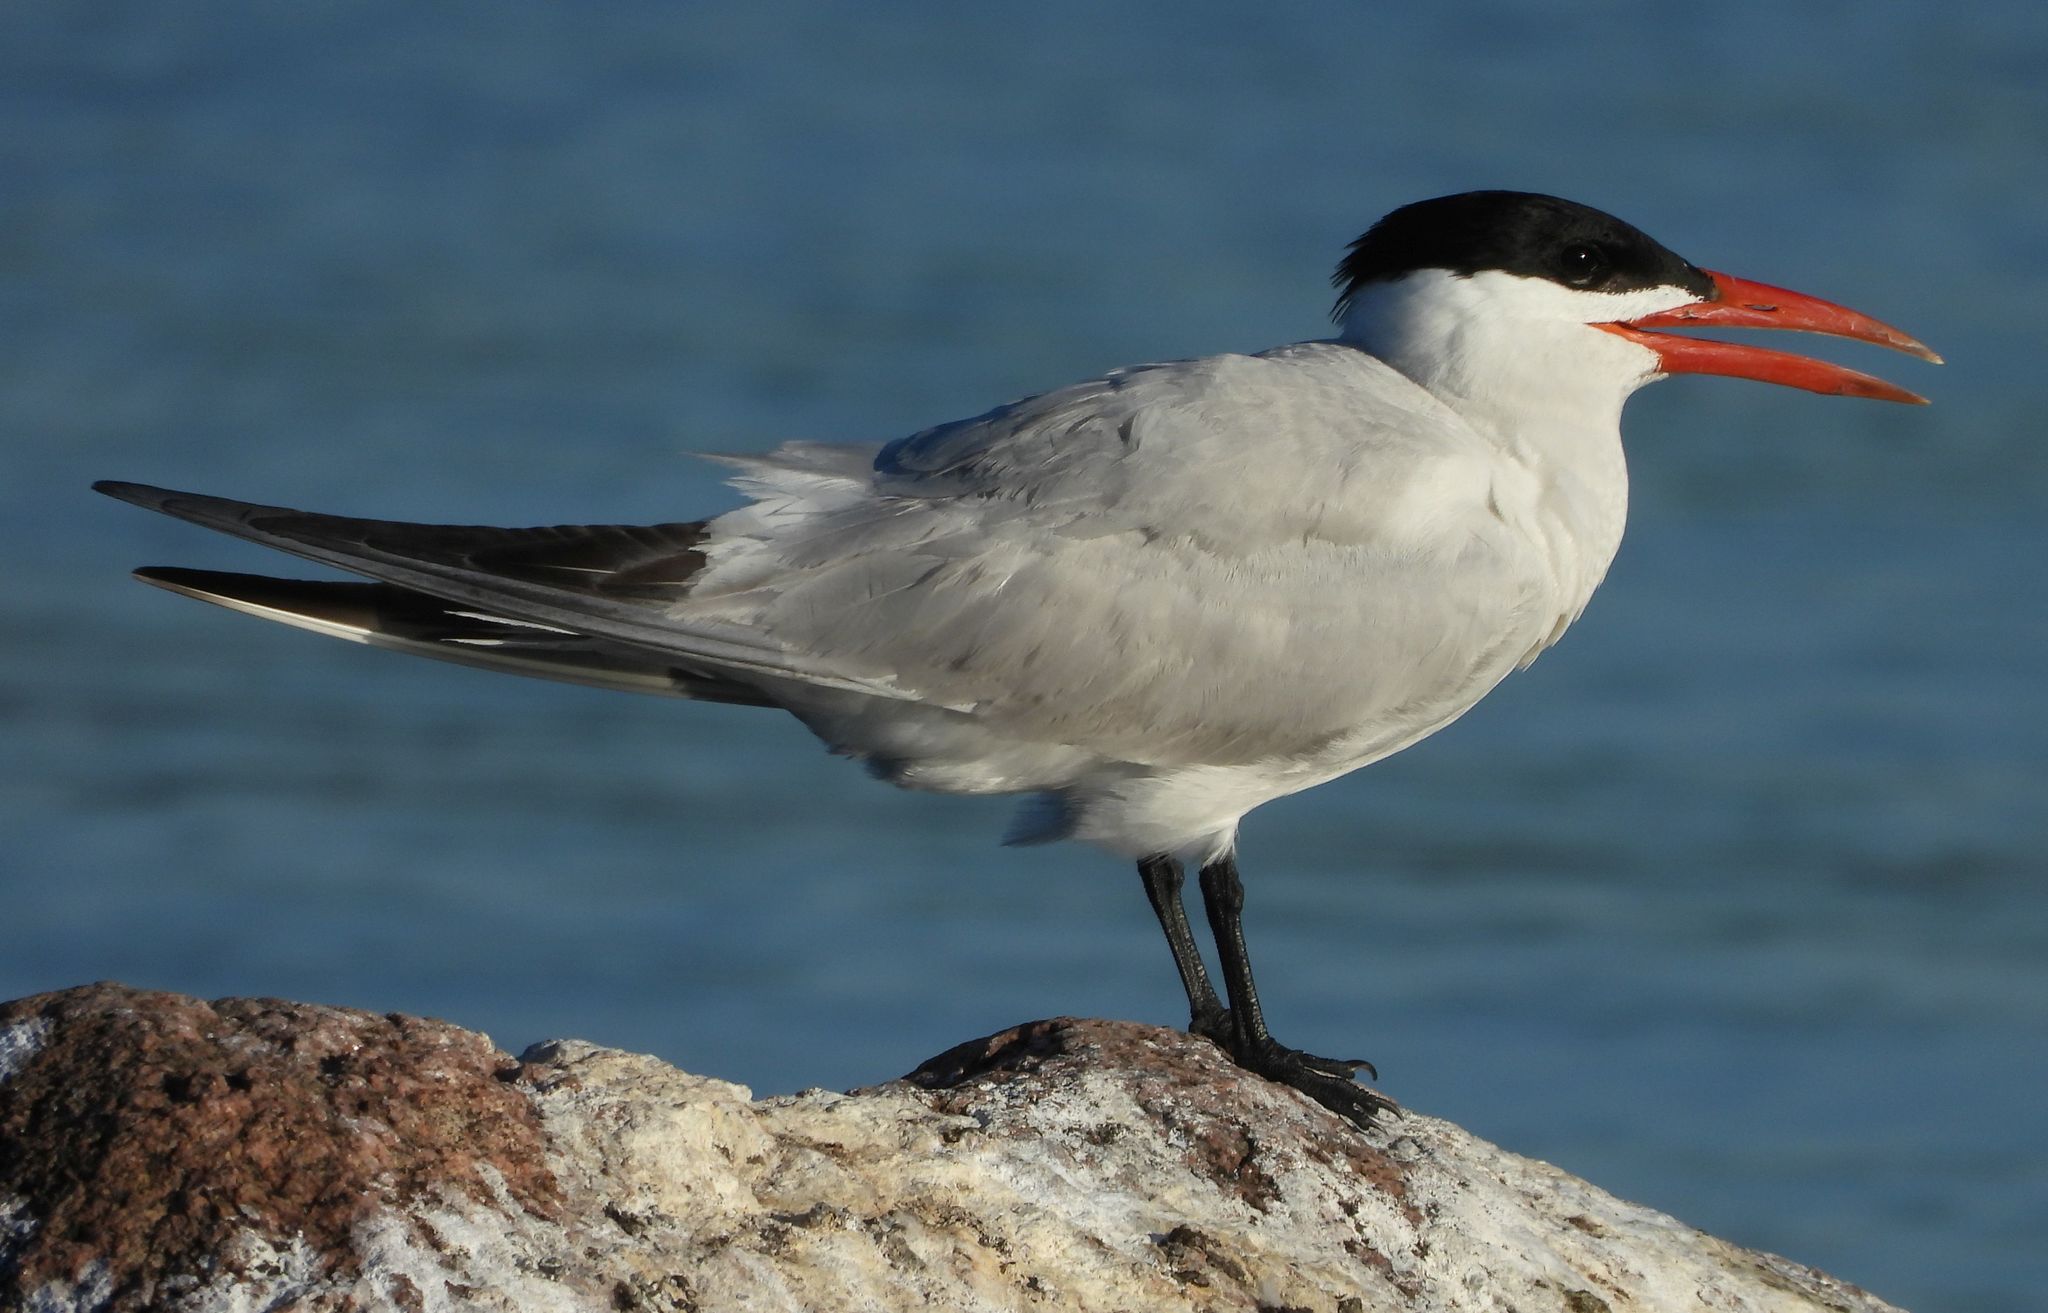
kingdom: Animalia
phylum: Chordata
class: Aves
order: Charadriiformes
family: Laridae
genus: Hydroprogne
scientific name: Hydroprogne caspia
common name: Caspian tern
